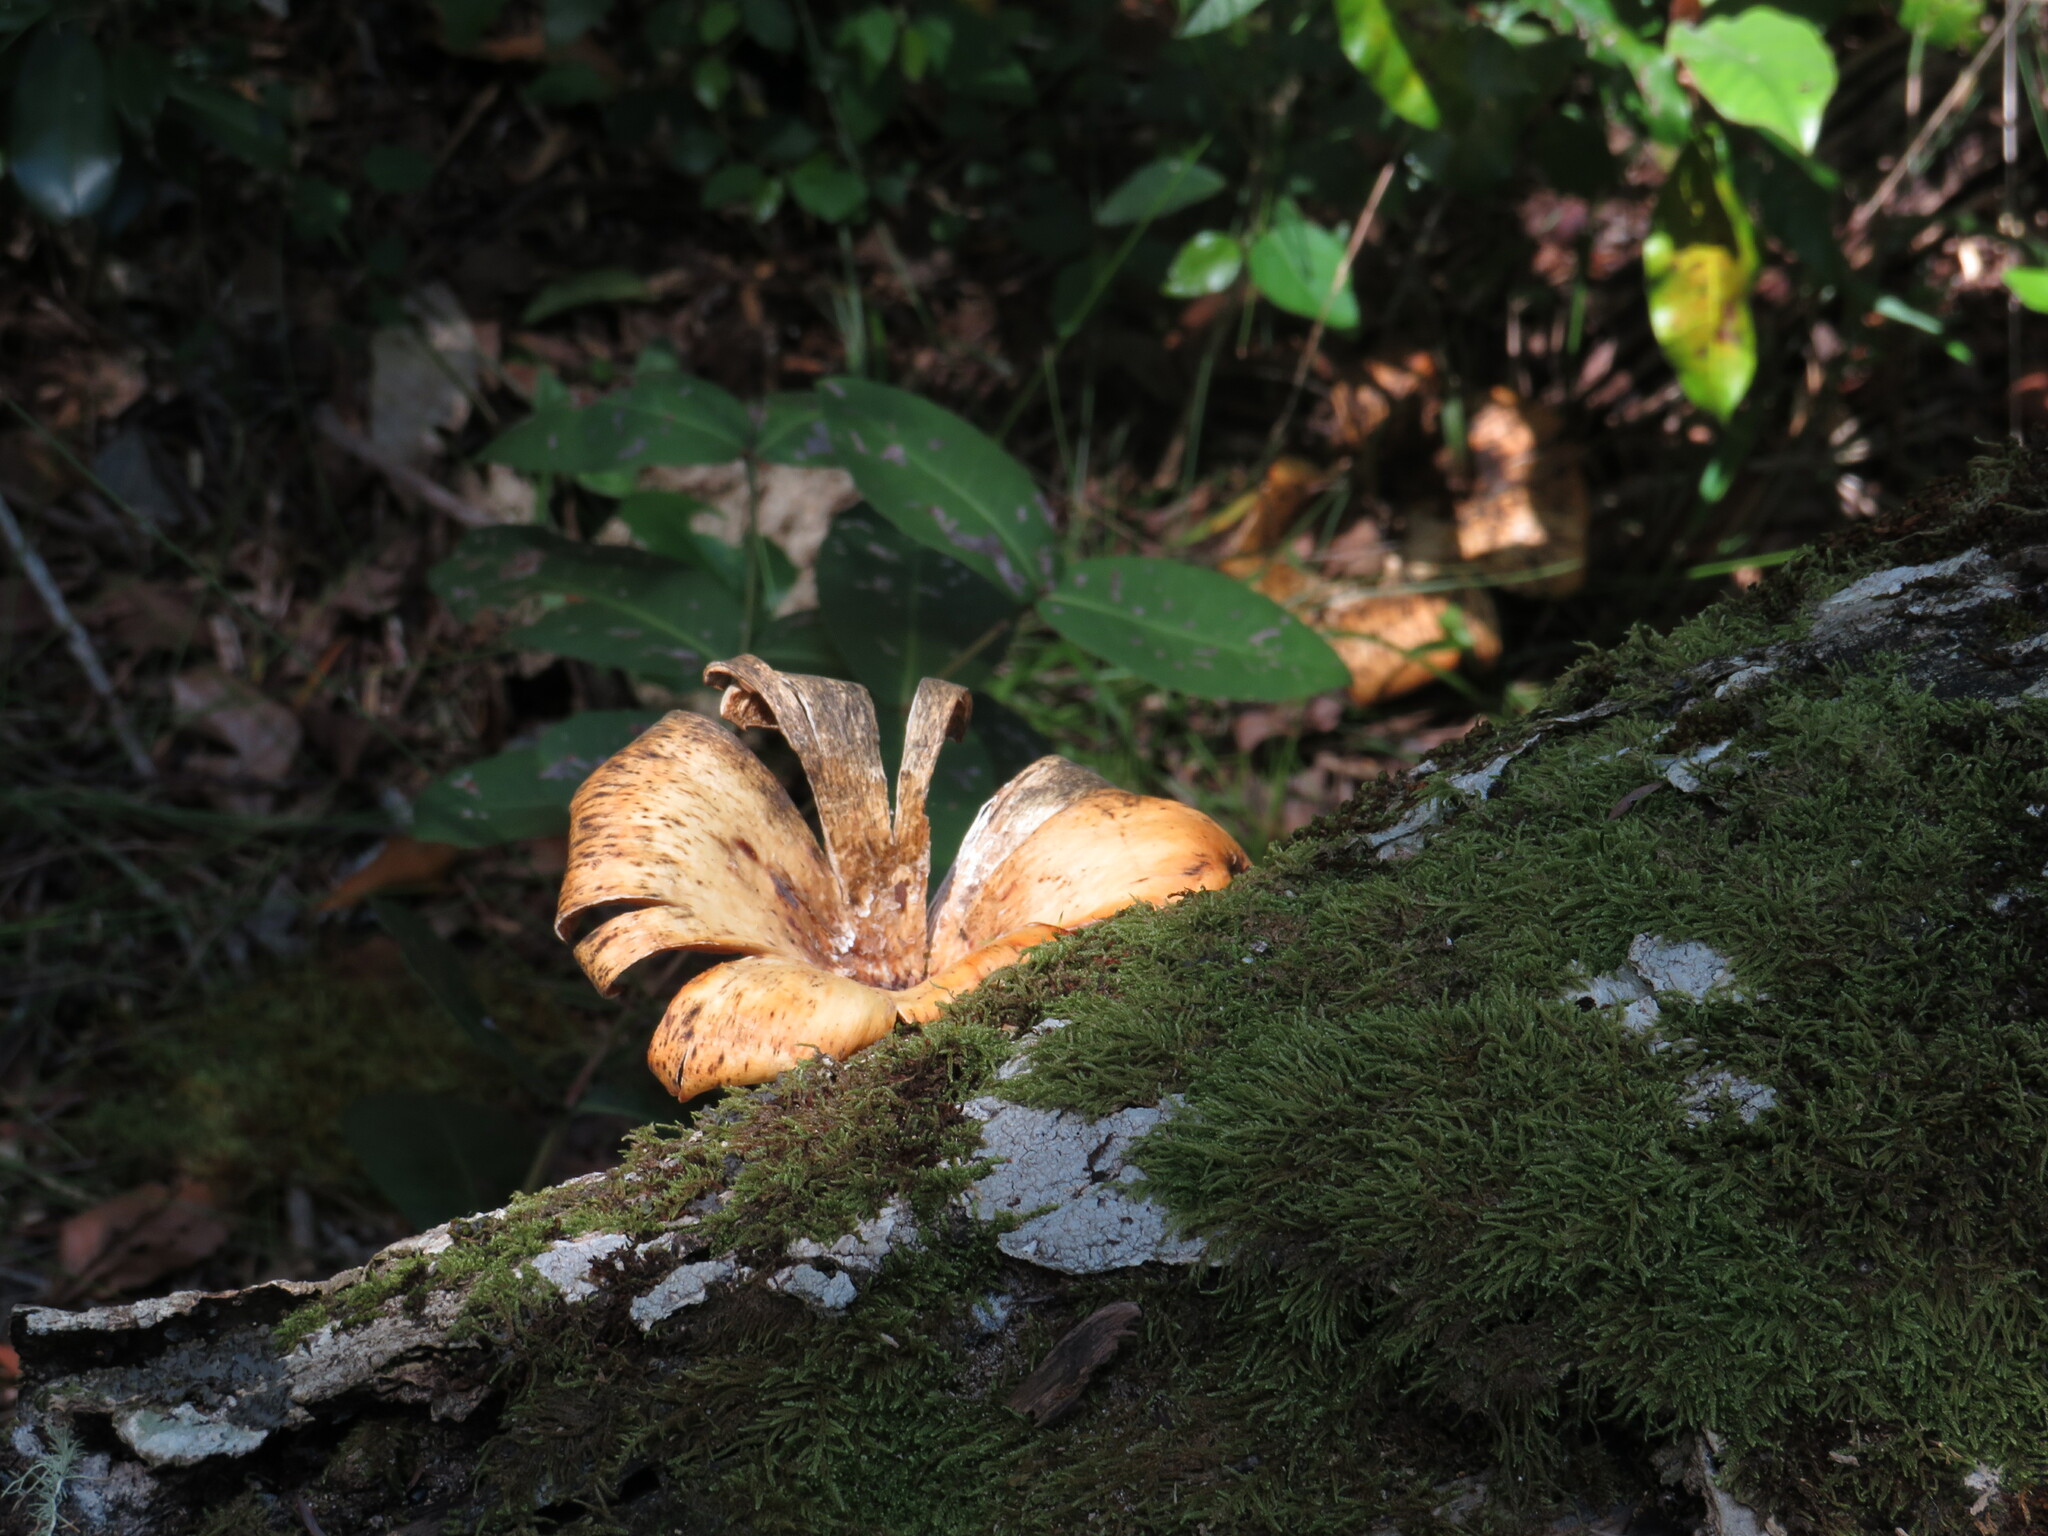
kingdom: Fungi
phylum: Basidiomycota
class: Agaricomycetes
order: Polyporales
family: Polyporaceae
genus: Lentinus
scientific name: Lentinus sajor-caju
